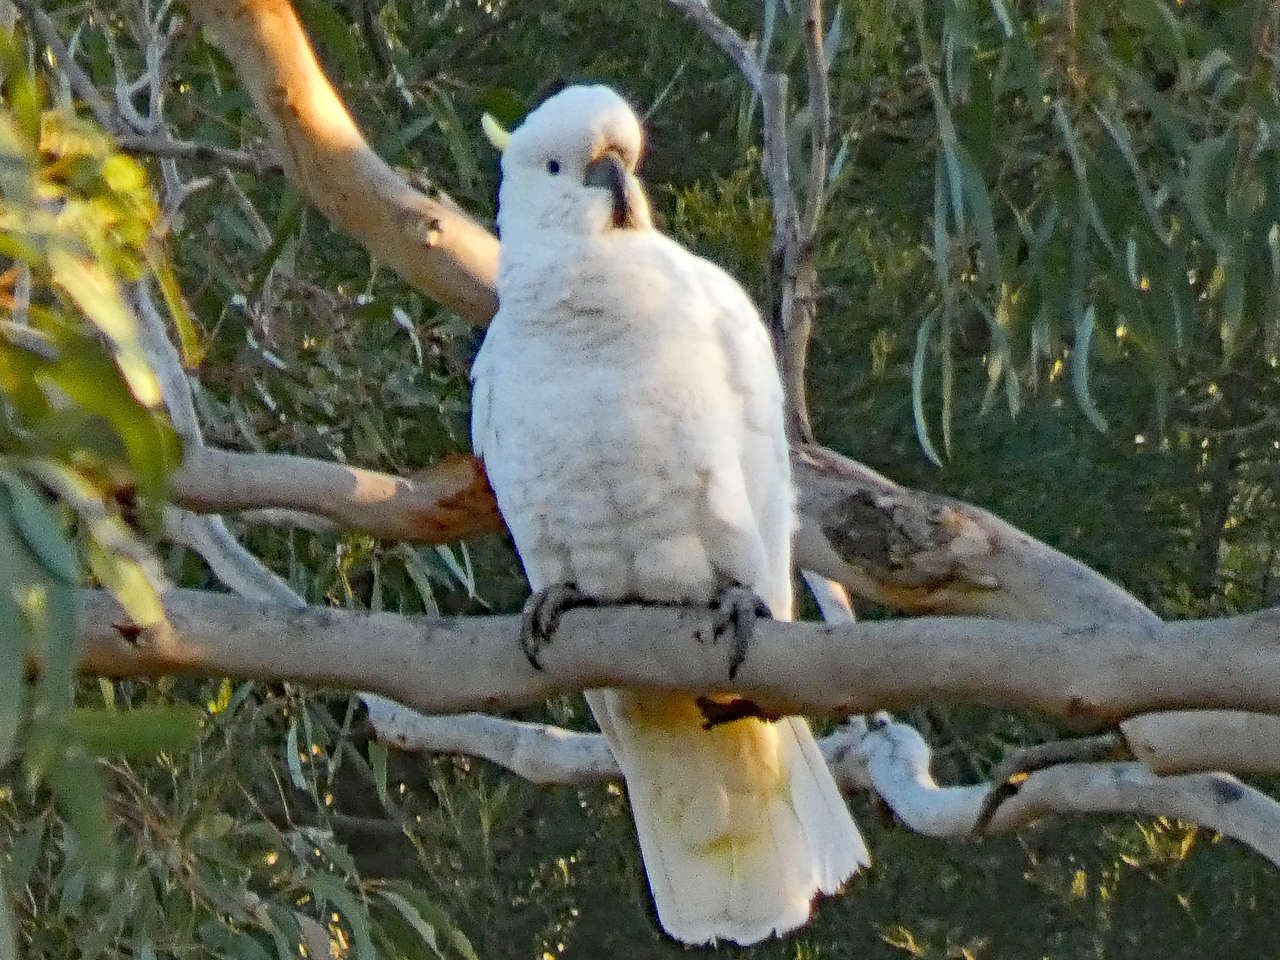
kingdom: Animalia
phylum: Chordata
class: Aves
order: Psittaciformes
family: Psittacidae
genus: Cacatua
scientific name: Cacatua galerita
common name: Sulphur-crested cockatoo
